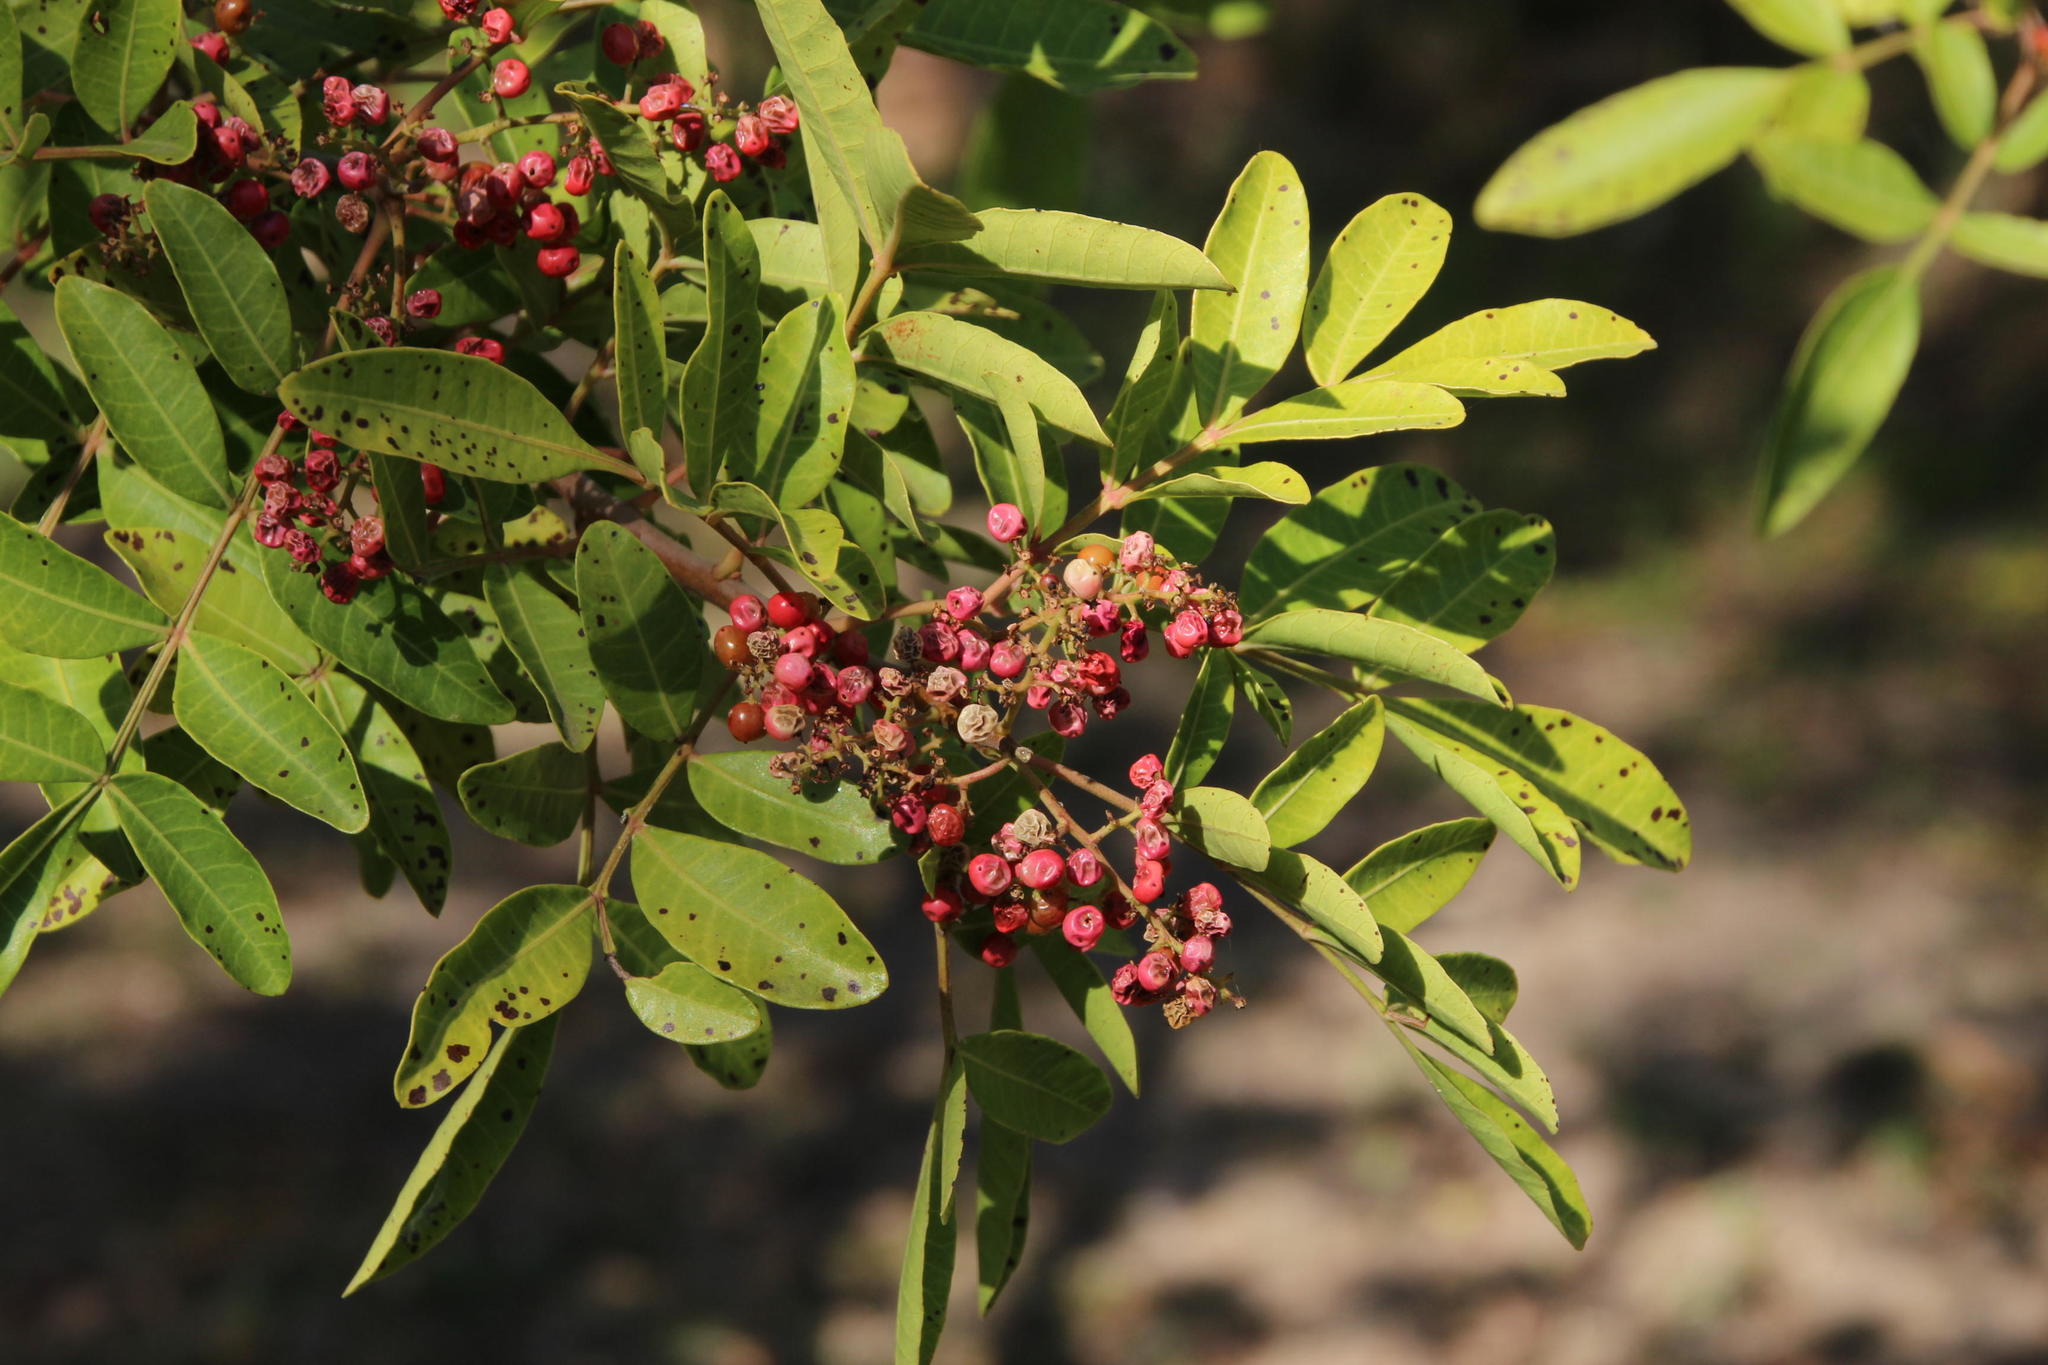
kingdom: Plantae
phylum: Tracheophyta
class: Magnoliopsida
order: Sapindales
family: Anacardiaceae
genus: Schinus
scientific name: Schinus terebinthifolia
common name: Brazilian peppertree
